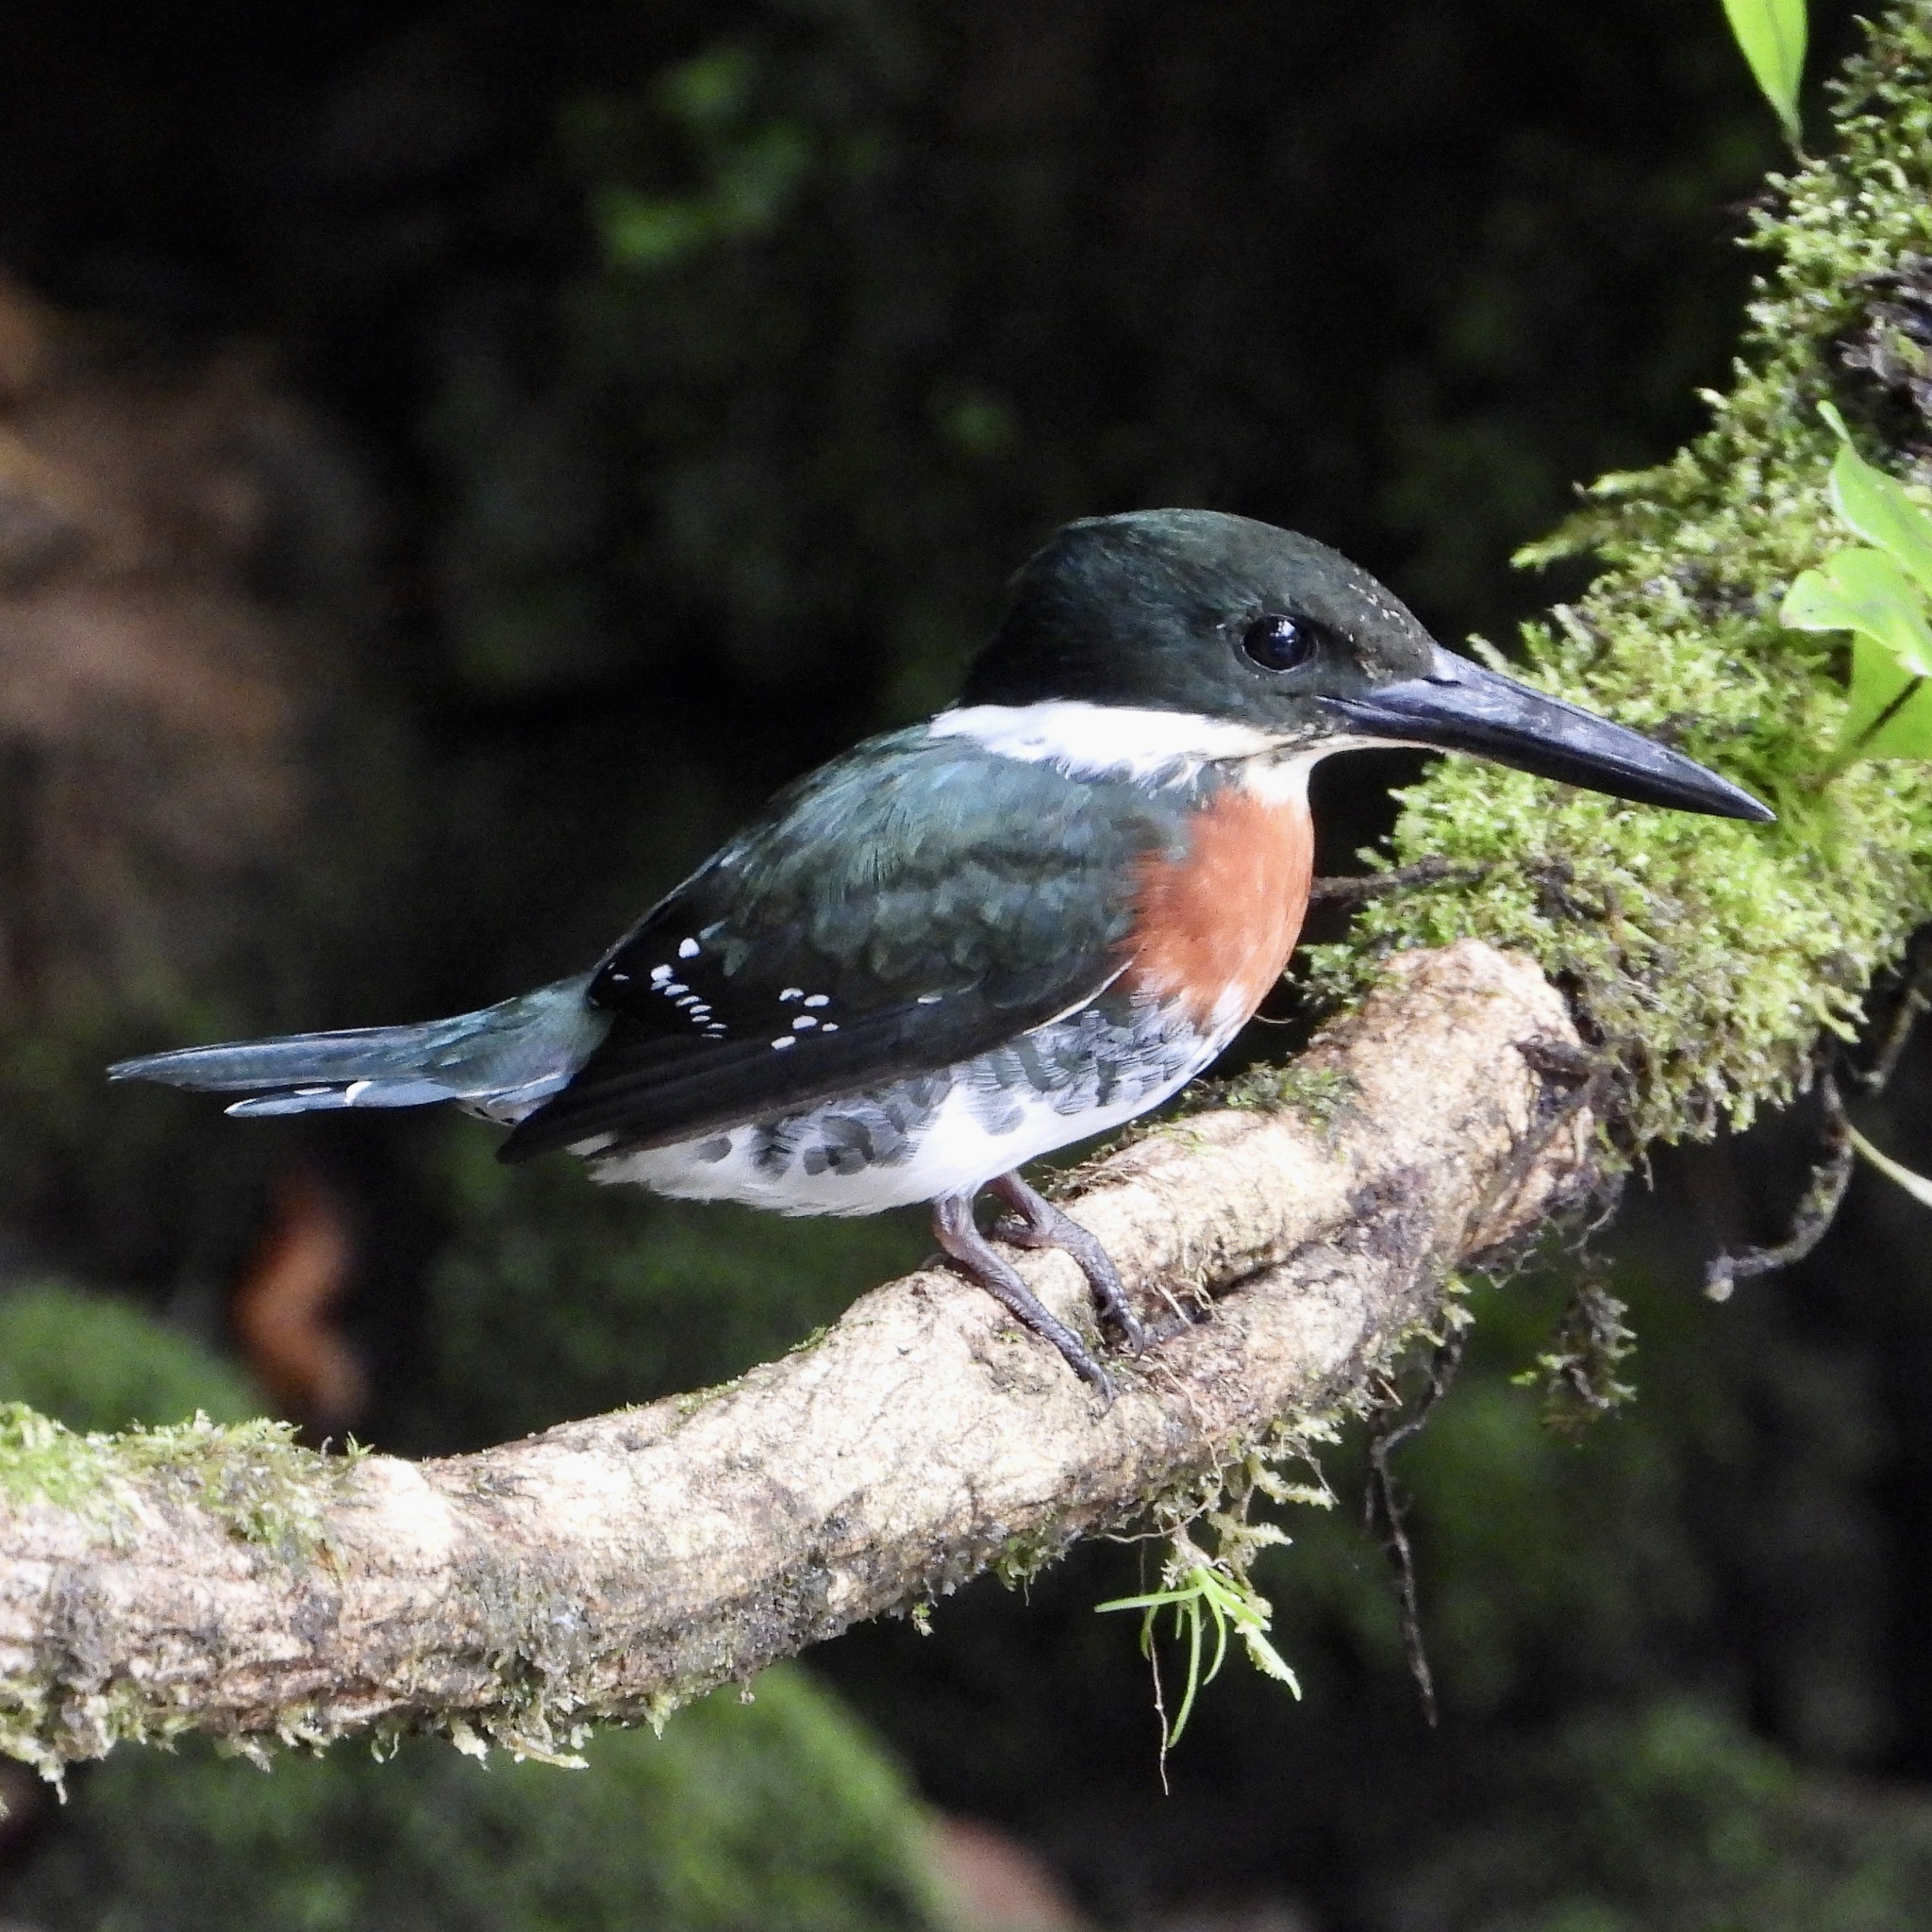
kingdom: Animalia
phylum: Chordata
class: Aves
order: Coraciiformes
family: Alcedinidae
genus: Chloroceryle
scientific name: Chloroceryle americana
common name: Green kingfisher
